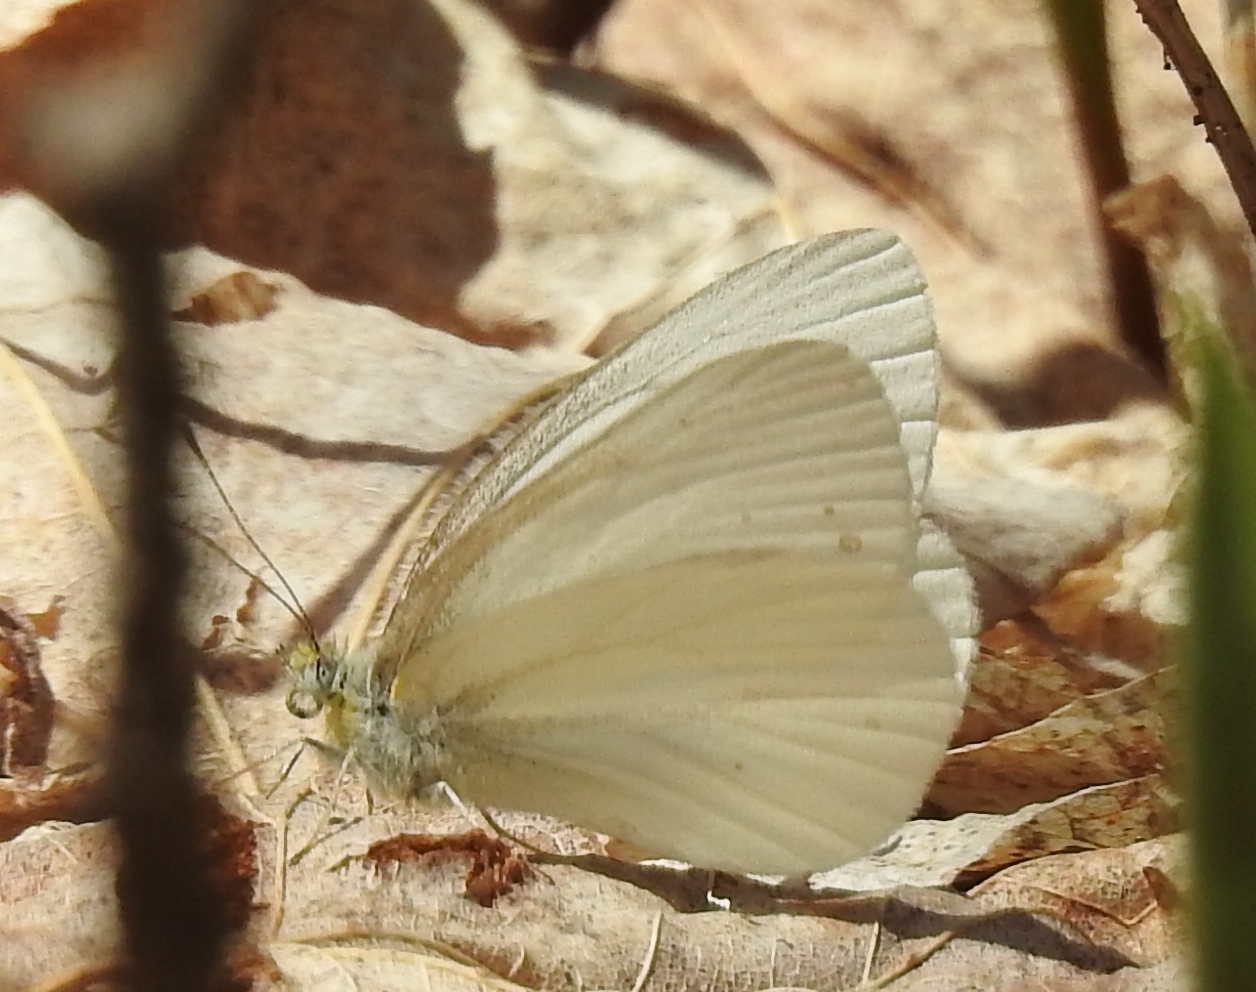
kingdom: Animalia
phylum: Arthropoda
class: Insecta
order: Lepidoptera
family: Pieridae
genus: Pieris
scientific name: Pieris virginiensis
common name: West virginia white
